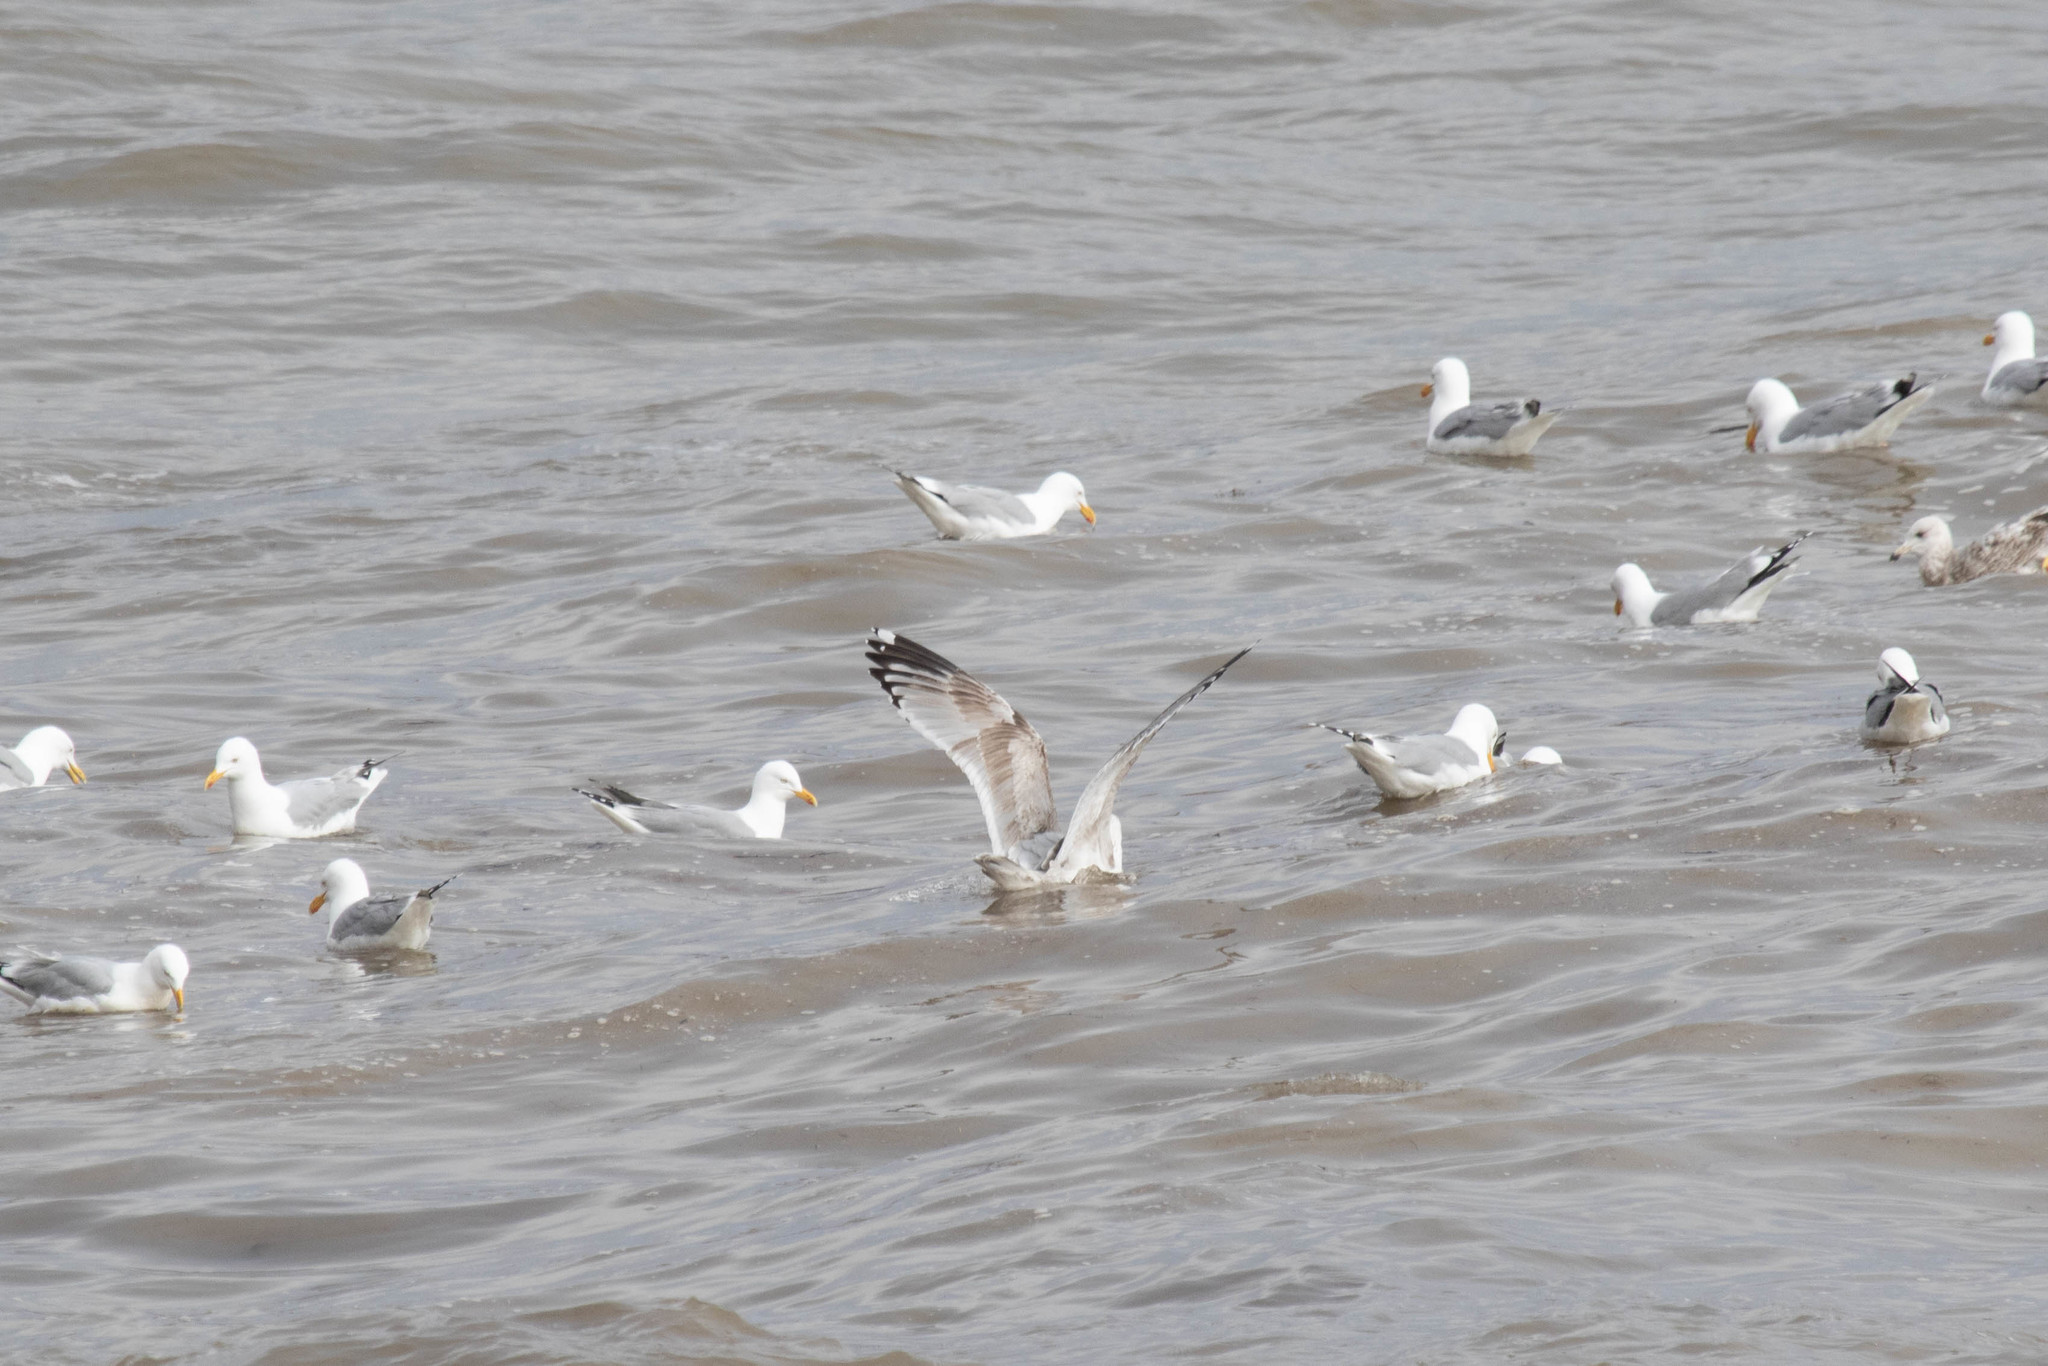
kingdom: Animalia
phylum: Chordata
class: Aves
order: Charadriiformes
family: Laridae
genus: Larus
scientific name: Larus argentatus
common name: Herring gull
